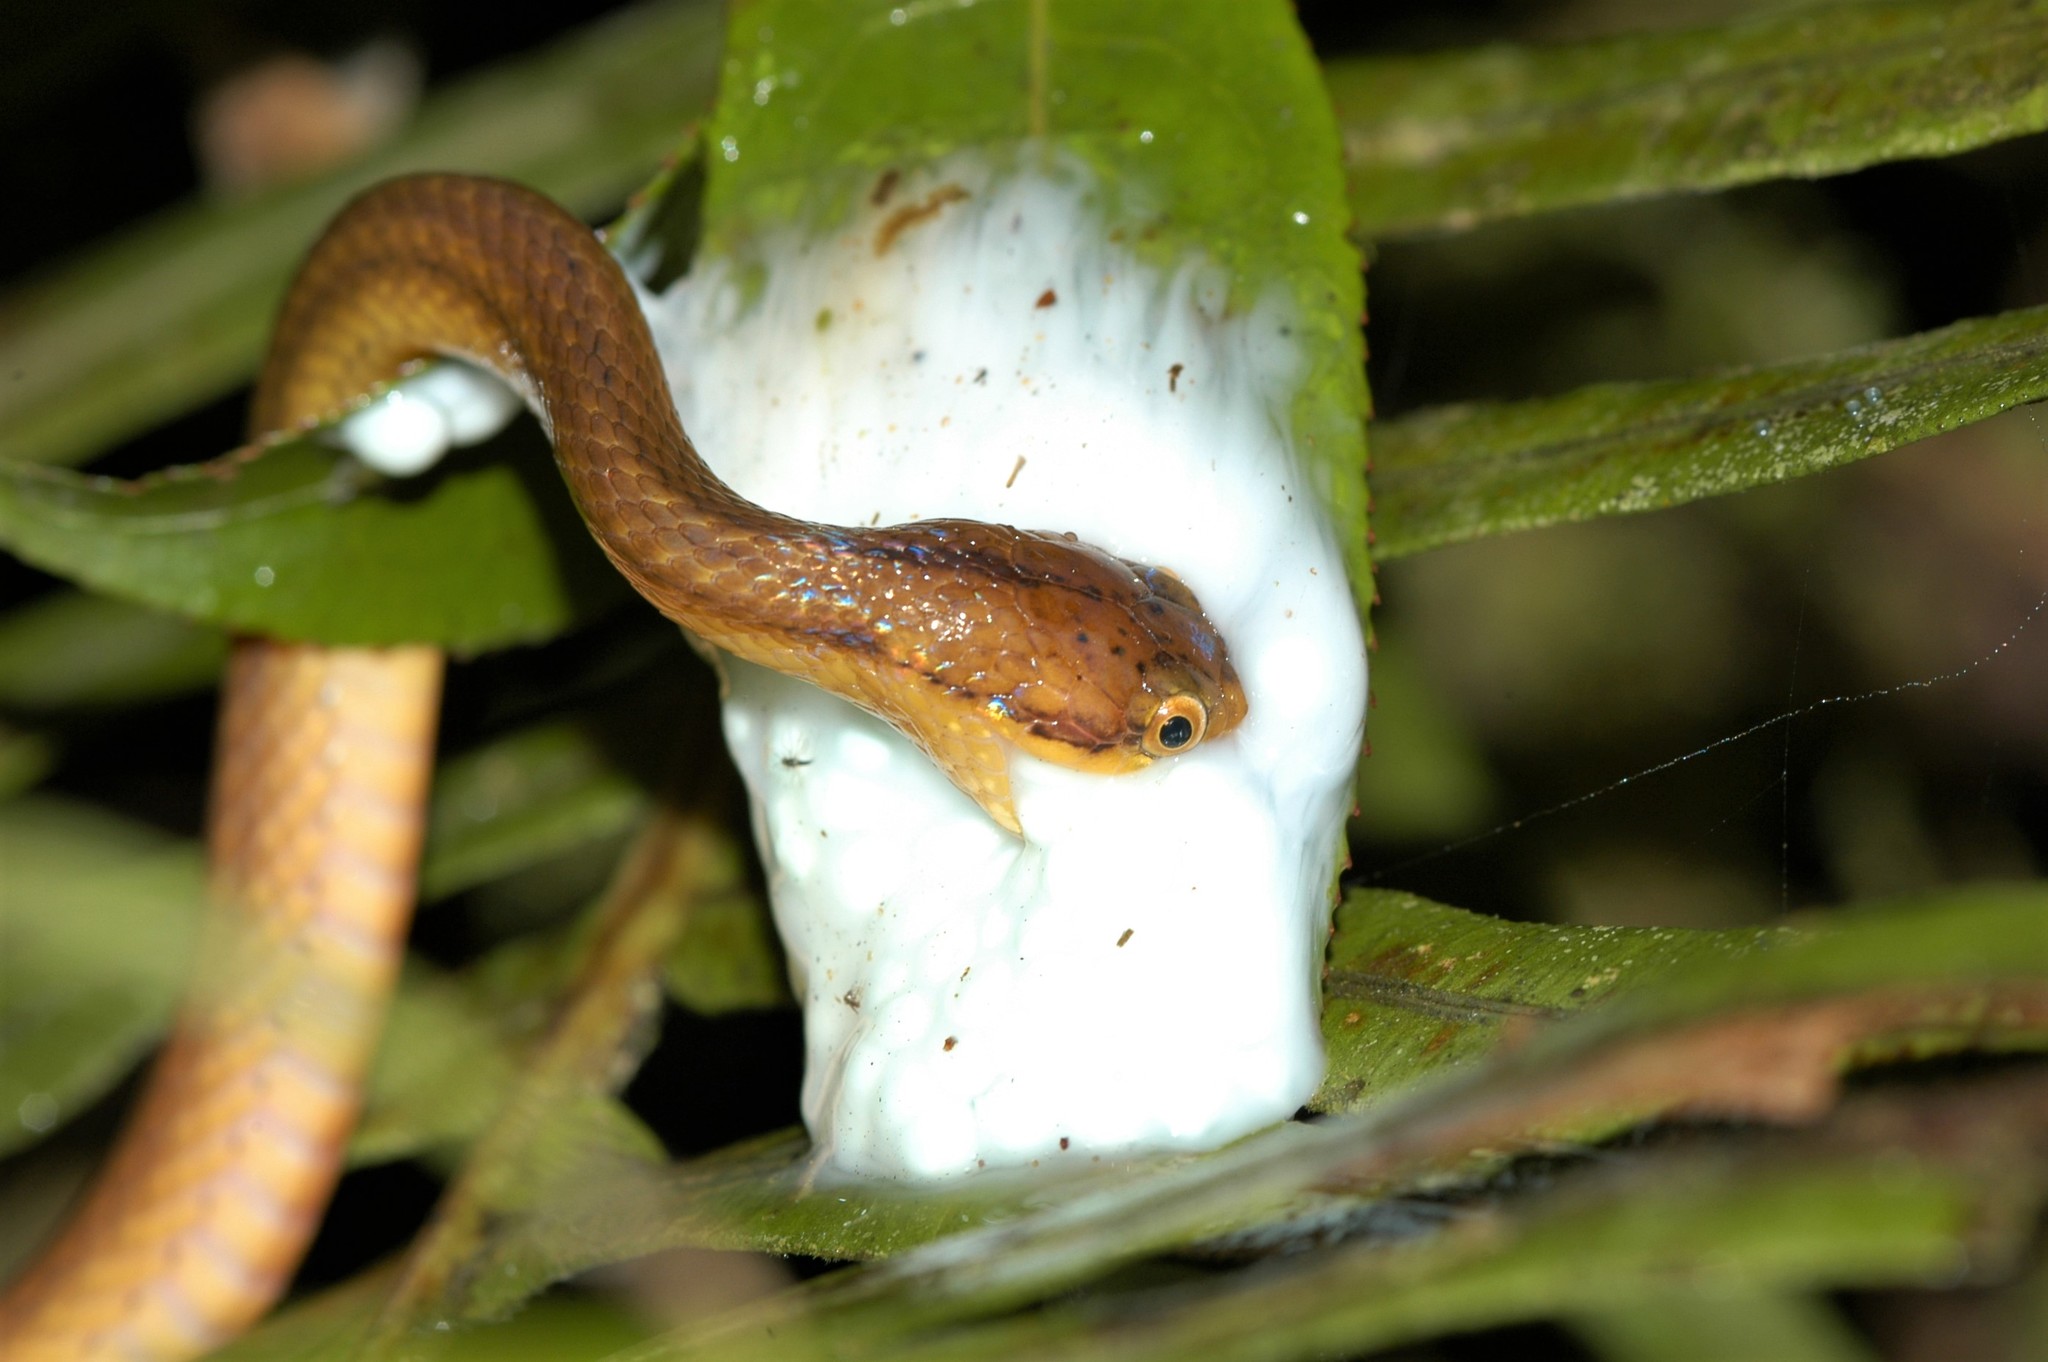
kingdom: Animalia
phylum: Chordata
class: Squamata
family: Pseudoxyrhophiidae
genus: Compsophis
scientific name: Compsophis laphystius
